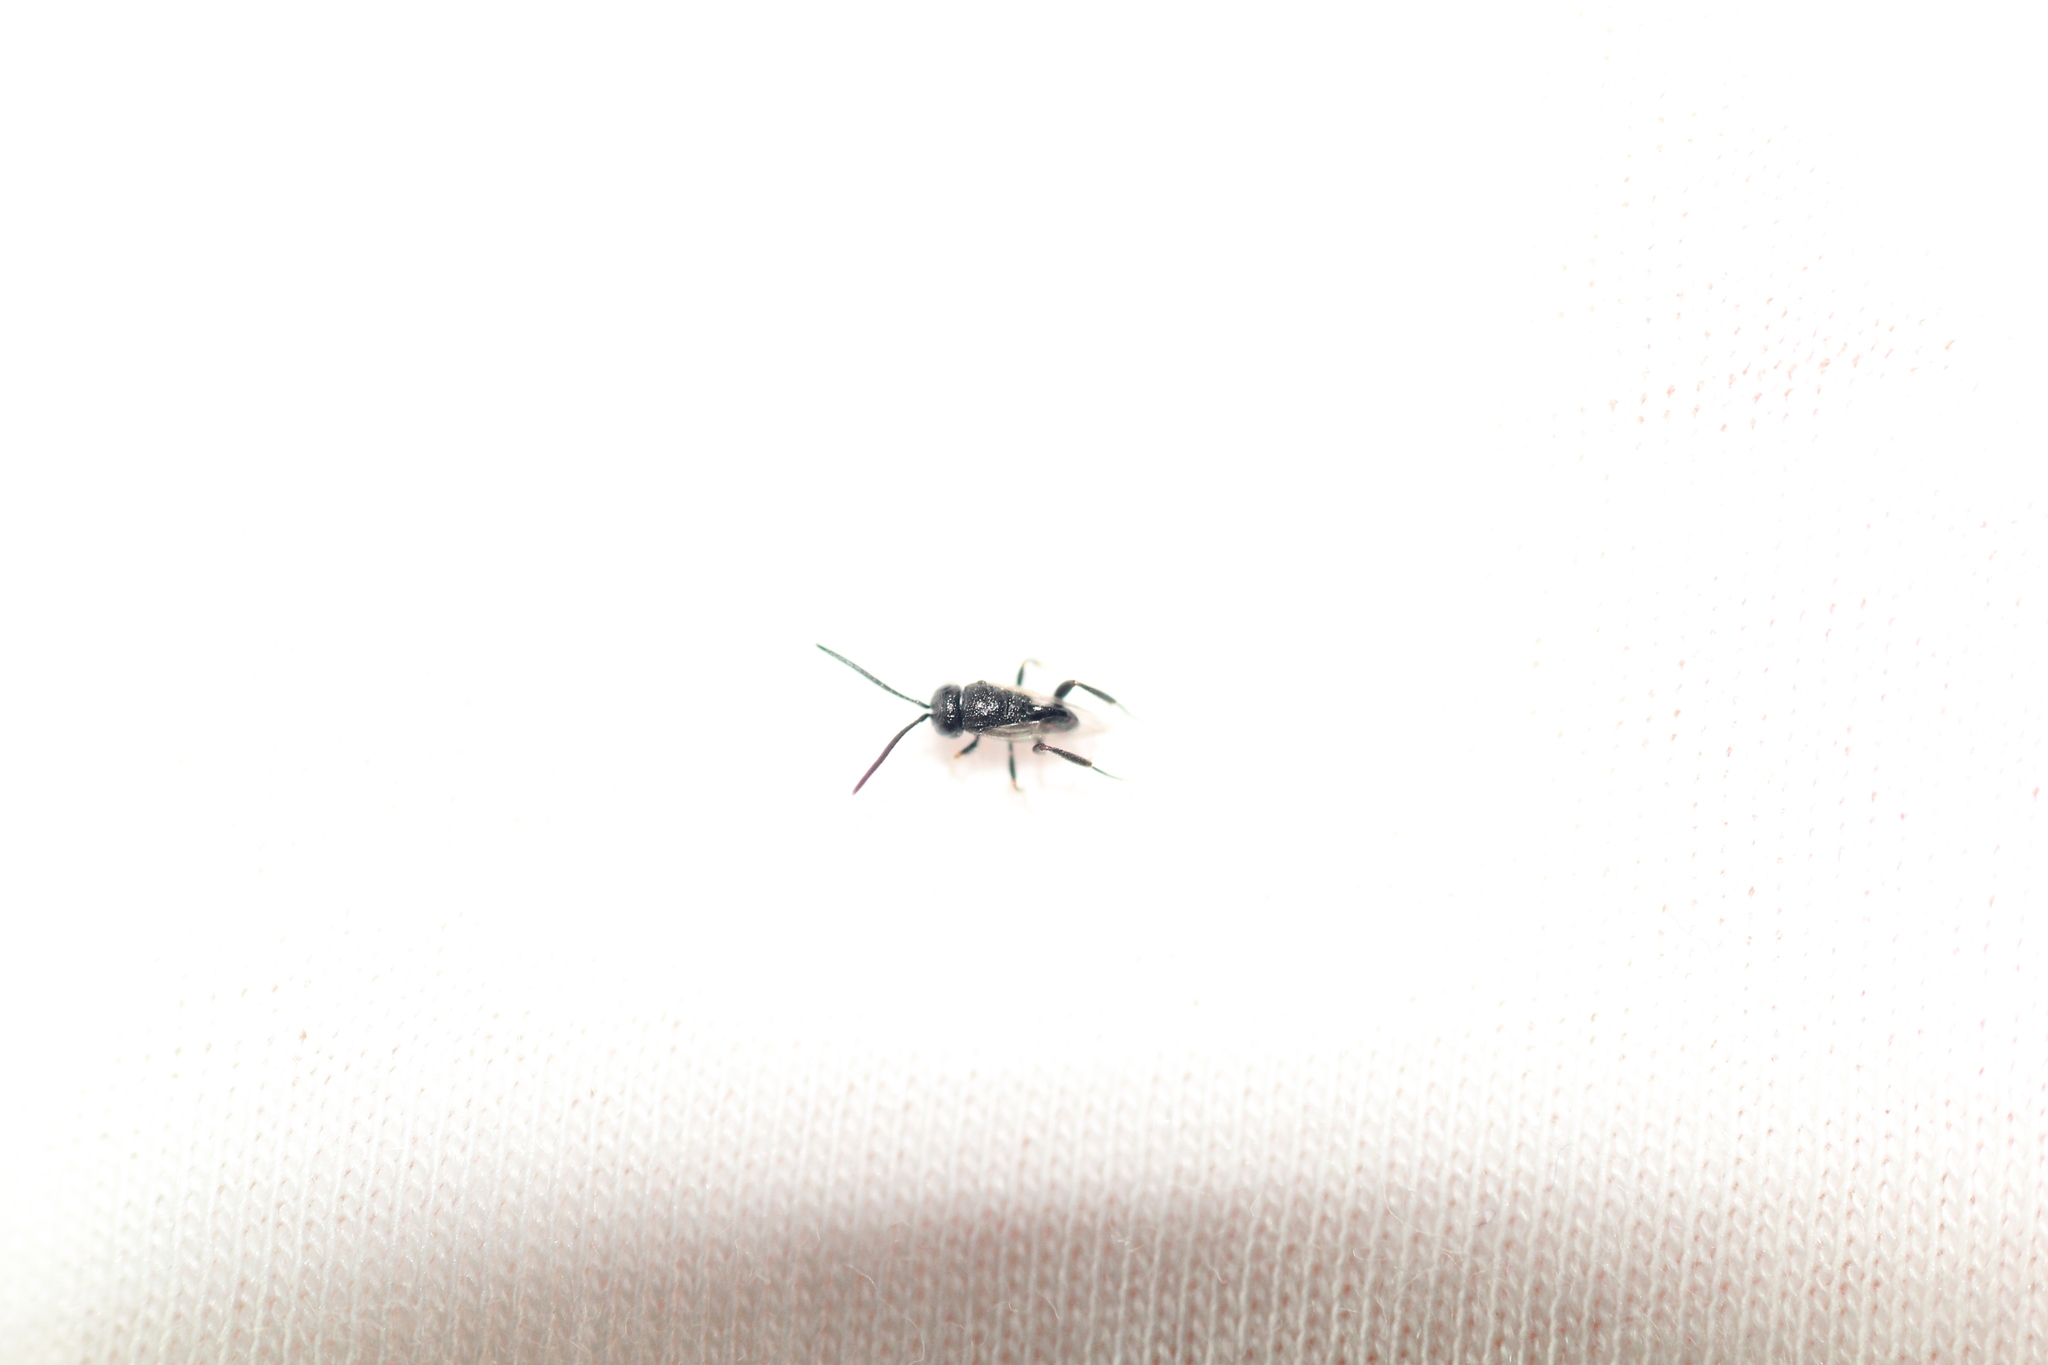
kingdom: Animalia
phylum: Arthropoda
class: Insecta
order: Hymenoptera
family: Evaniidae
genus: Brachygaster
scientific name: Brachygaster minutus
